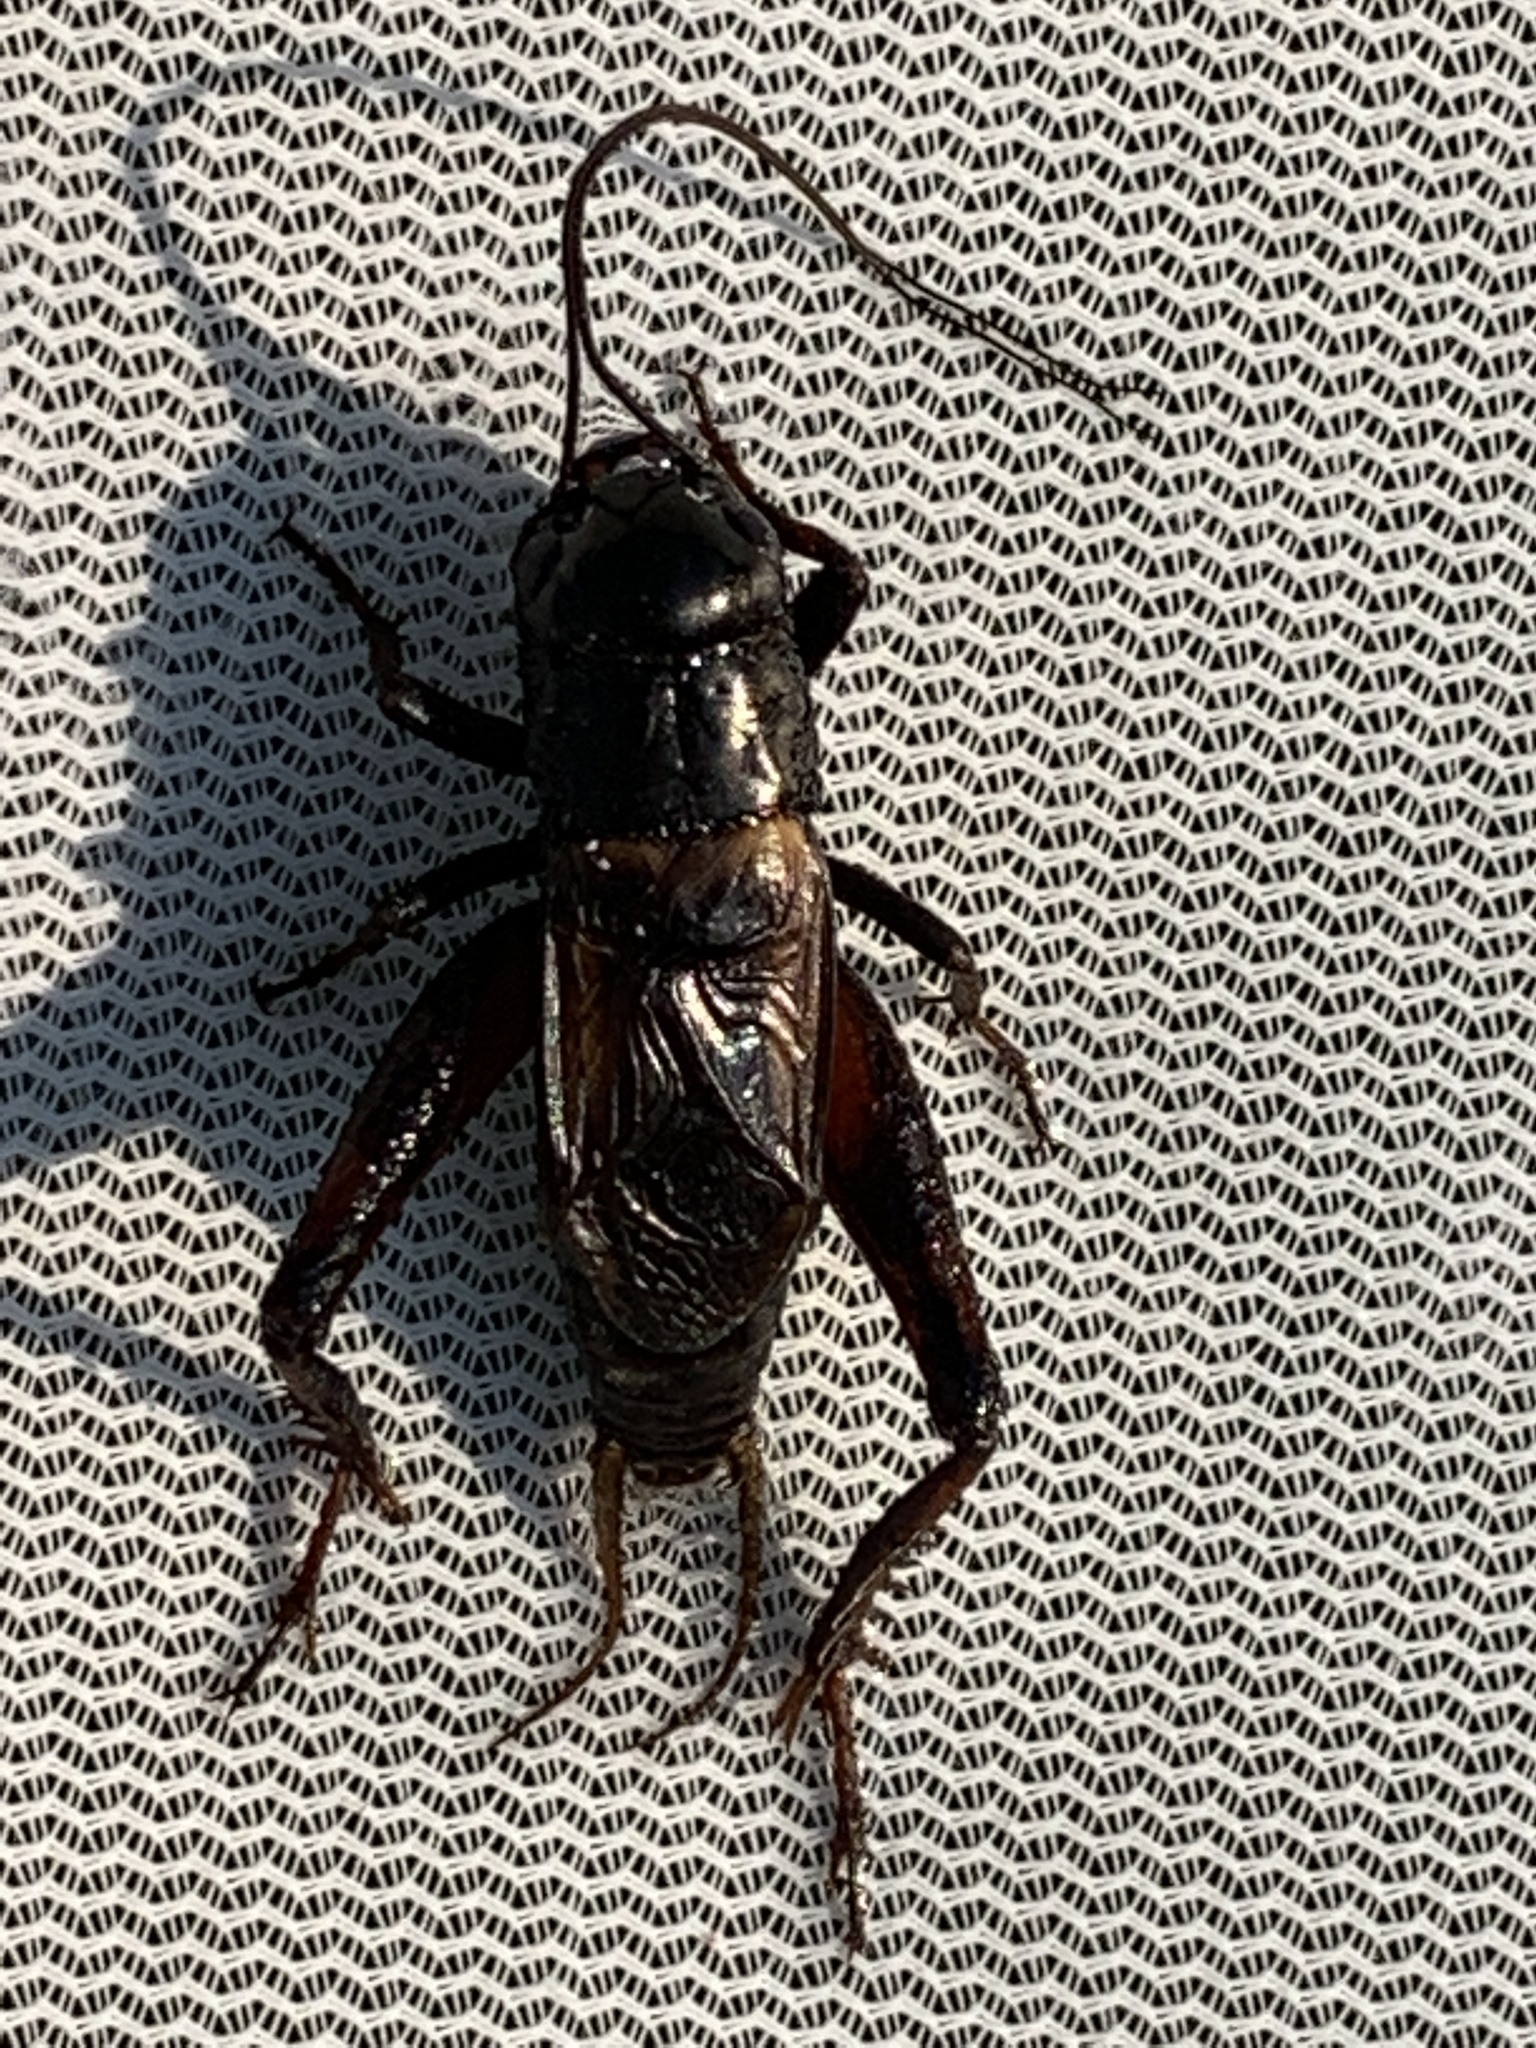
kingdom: Animalia
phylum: Arthropoda
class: Insecta
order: Orthoptera
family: Gryllidae
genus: Gryllus
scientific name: Gryllus pennsylvanicus
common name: Fall field cricket
